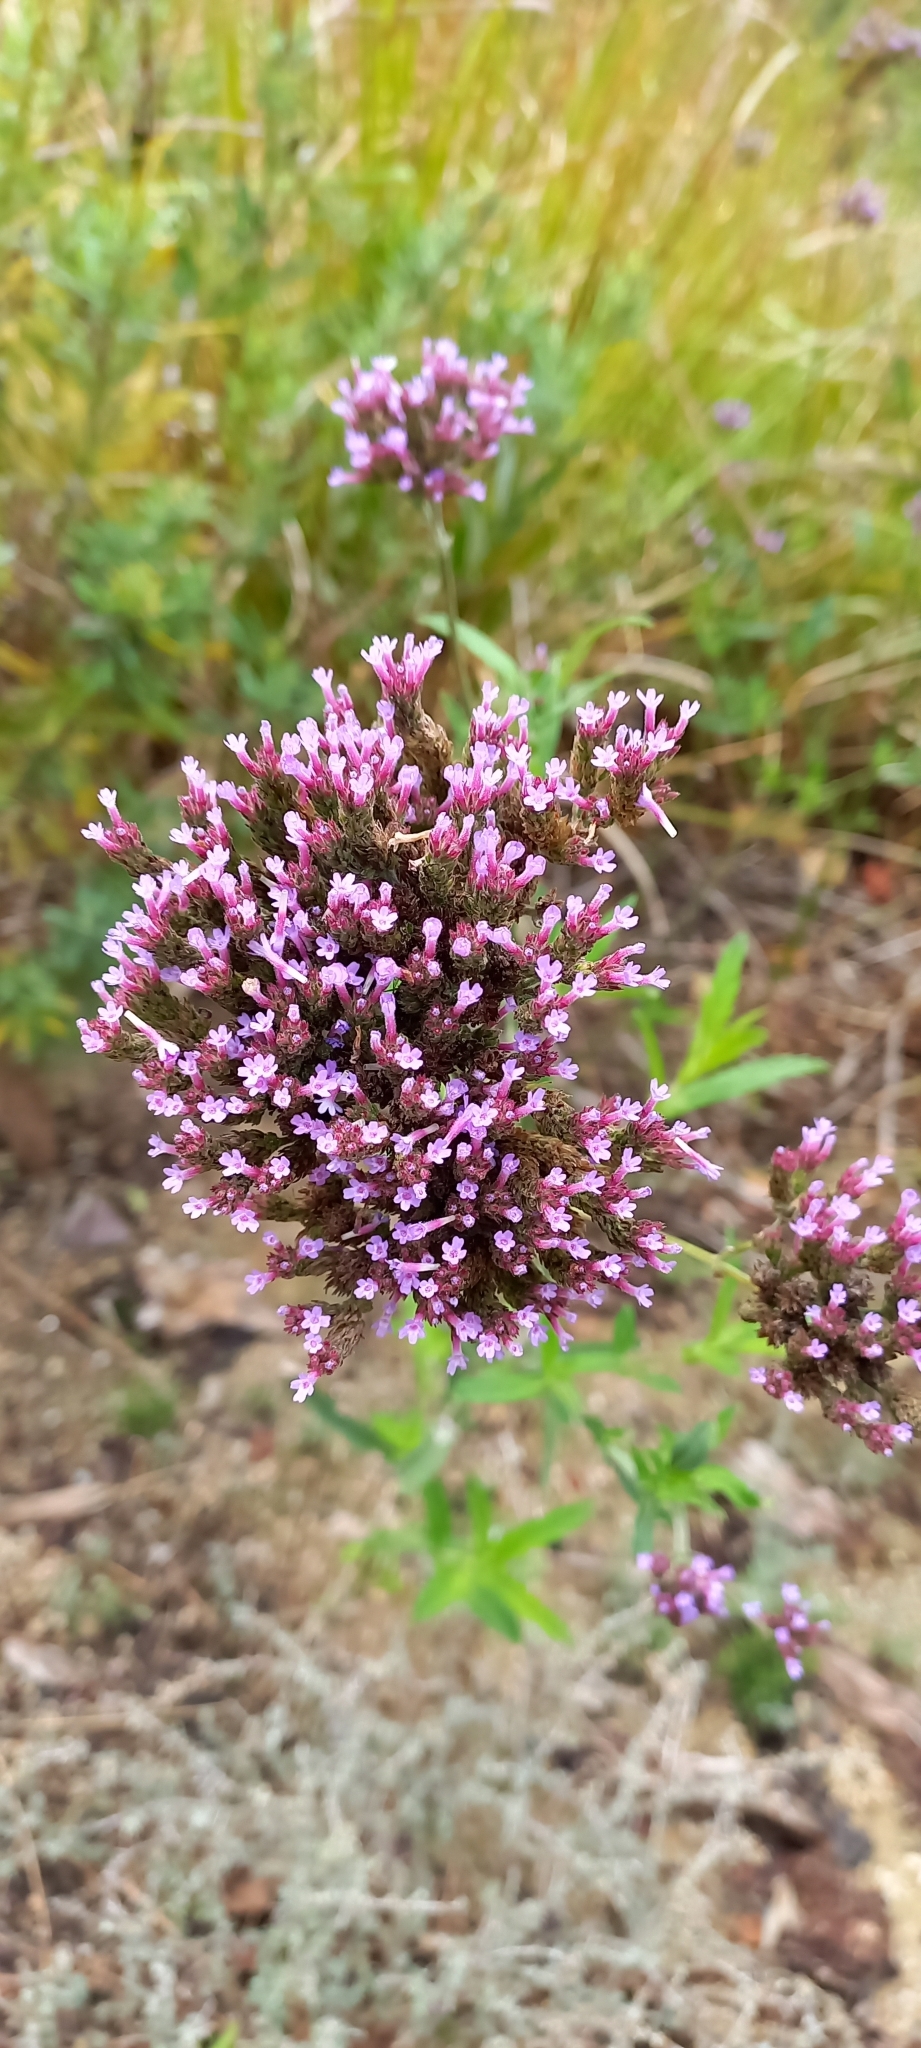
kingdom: Plantae
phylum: Tracheophyta
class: Magnoliopsida
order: Lamiales
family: Verbenaceae
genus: Verbena
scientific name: Verbena bonariensis
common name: Purpletop vervain
